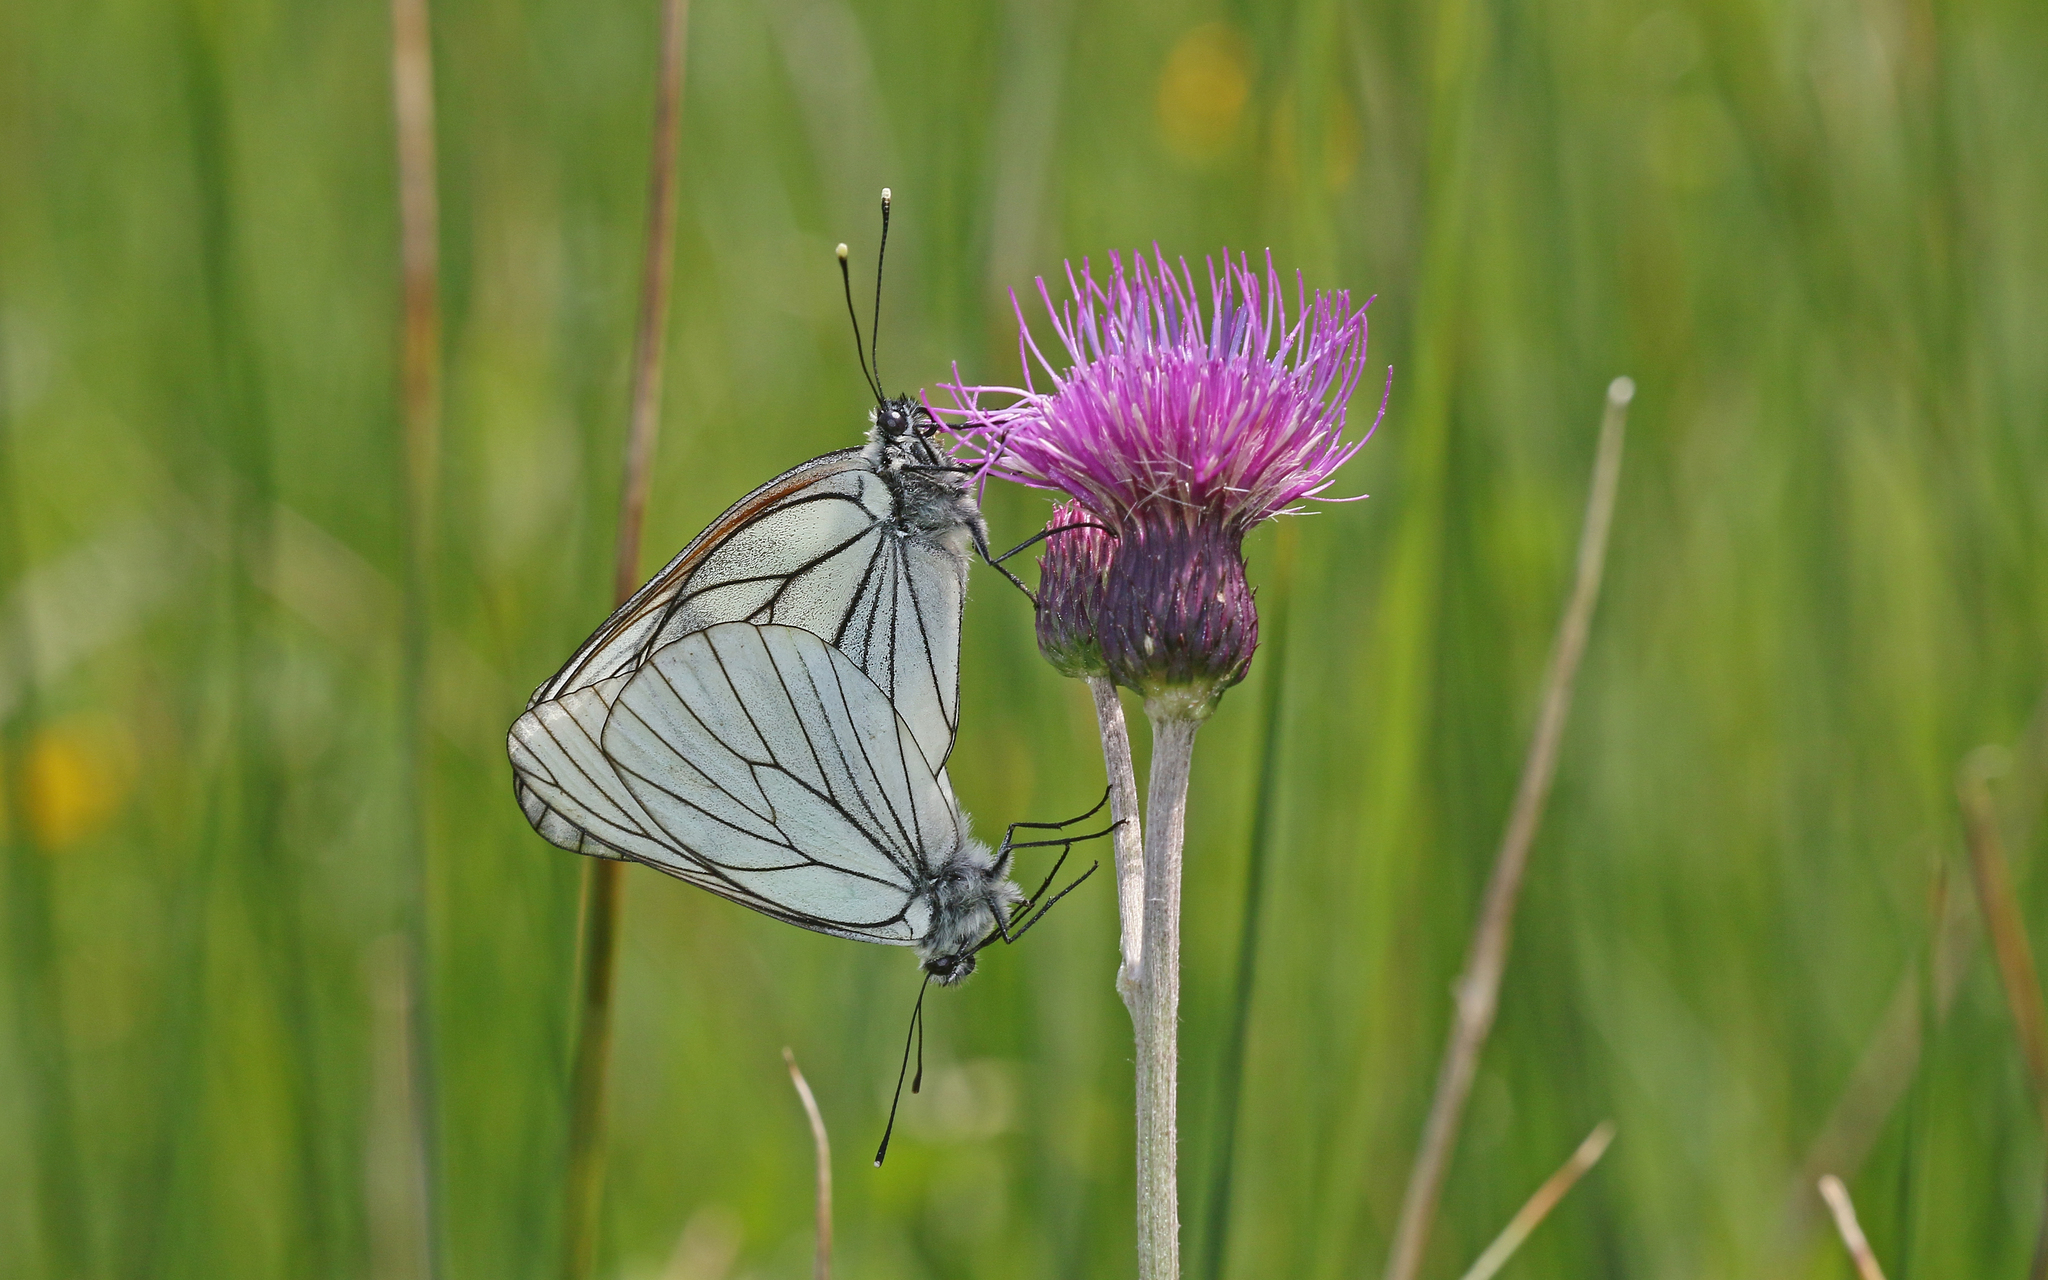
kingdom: Animalia
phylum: Arthropoda
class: Insecta
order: Lepidoptera
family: Pieridae
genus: Aporia
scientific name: Aporia crataegi
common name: Black-veined white
